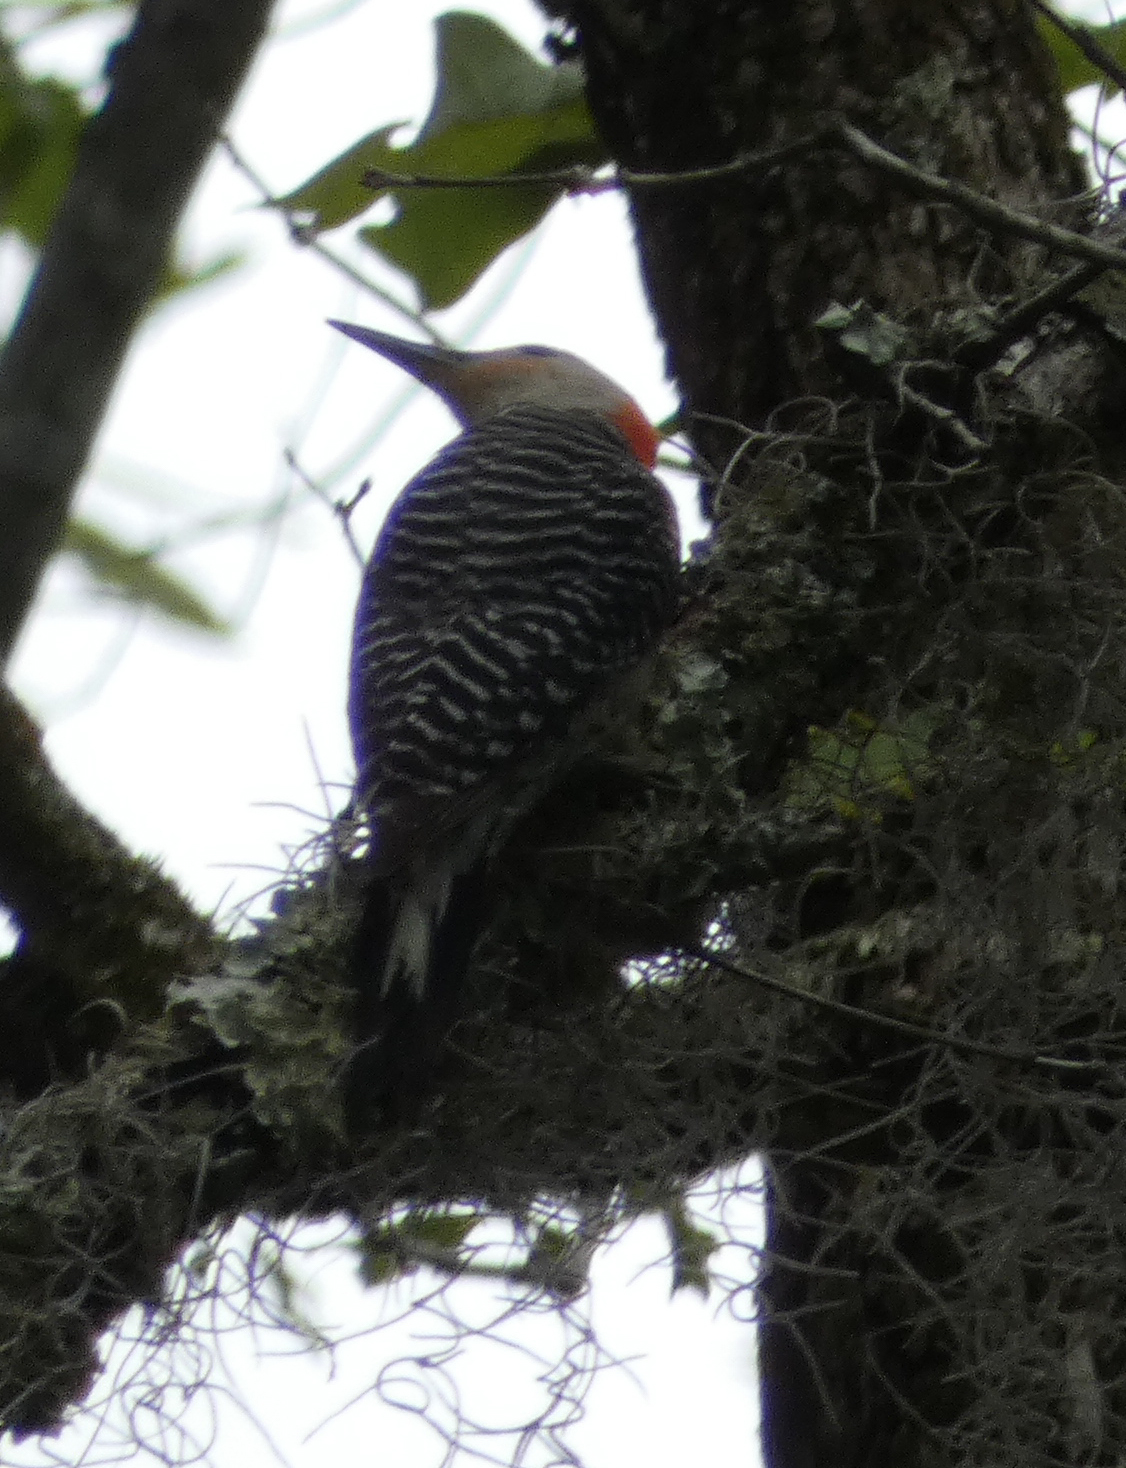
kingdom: Animalia
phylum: Chordata
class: Aves
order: Piciformes
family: Picidae
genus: Melanerpes
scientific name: Melanerpes carolinus
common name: Red-bellied woodpecker
